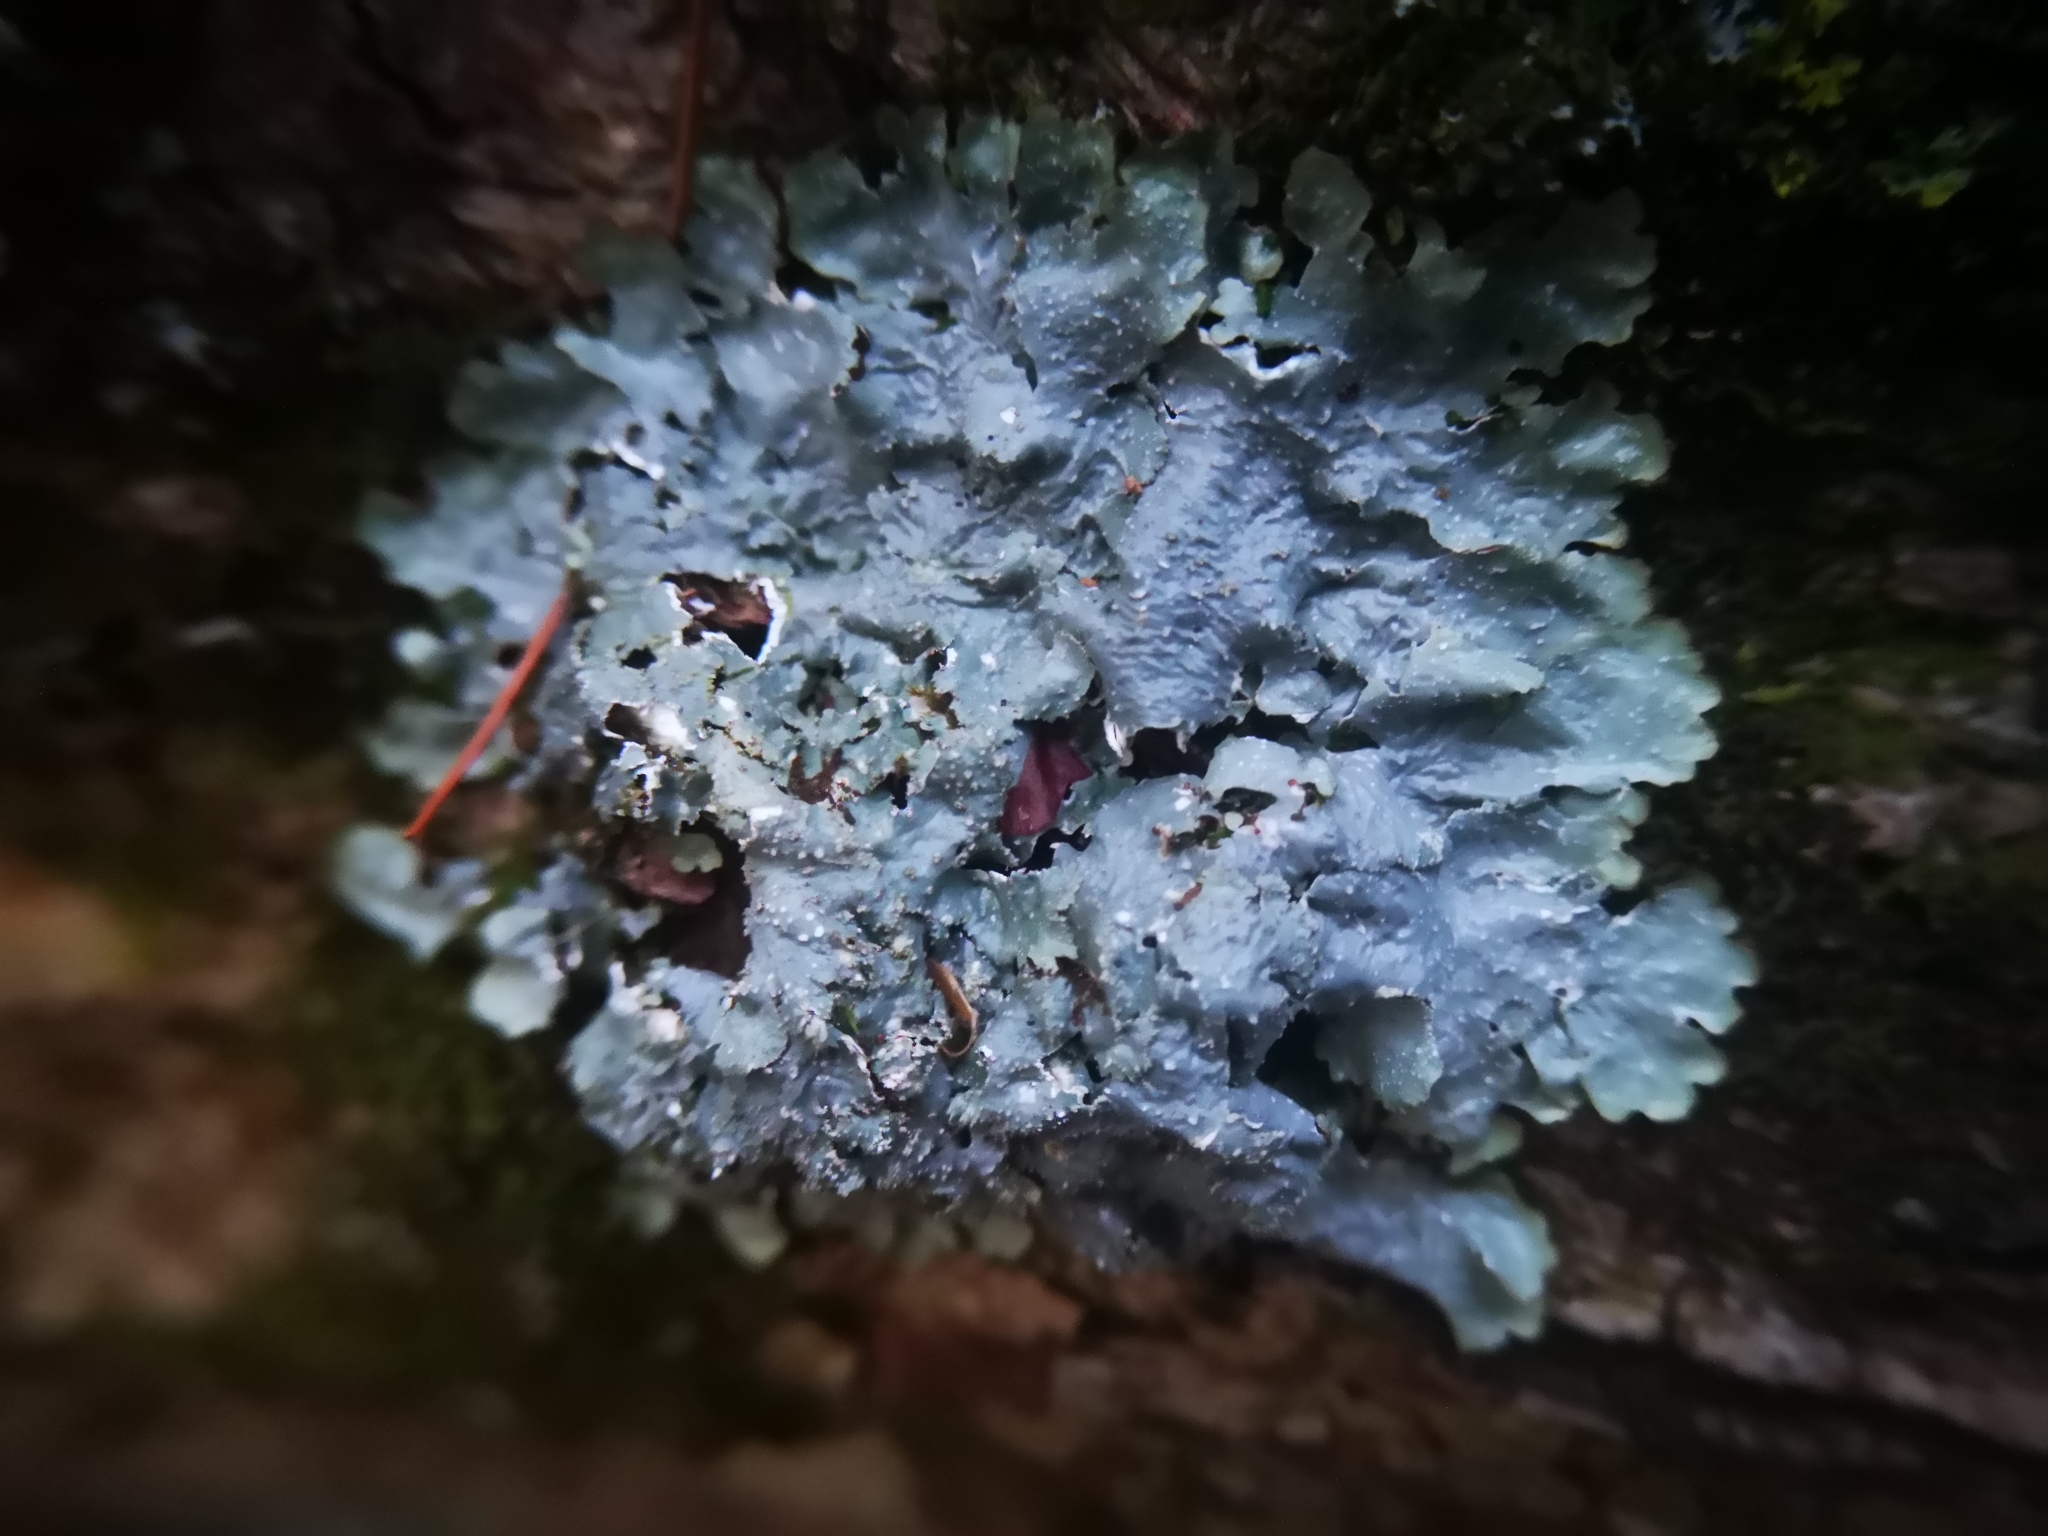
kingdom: Fungi
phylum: Ascomycota
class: Lecanoromycetes
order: Lecanorales
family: Parmeliaceae
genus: Punctelia
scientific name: Punctelia rudecta
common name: Rough speckled shield lichen
